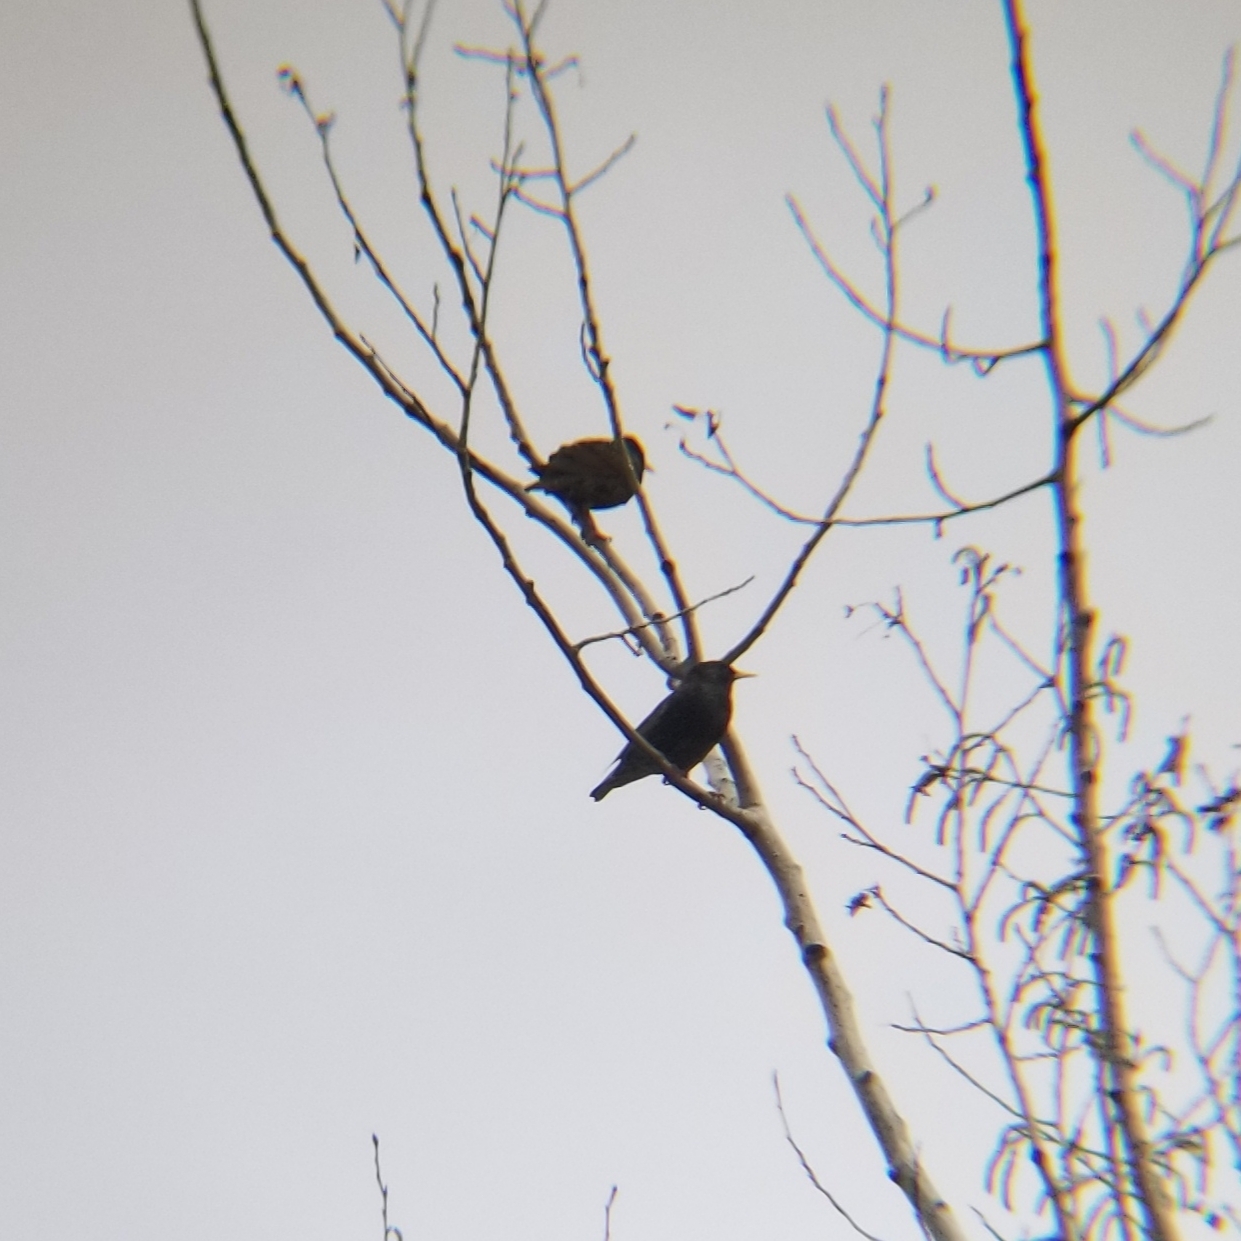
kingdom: Animalia
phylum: Chordata
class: Aves
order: Passeriformes
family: Sturnidae
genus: Sturnus
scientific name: Sturnus vulgaris
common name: Common starling
